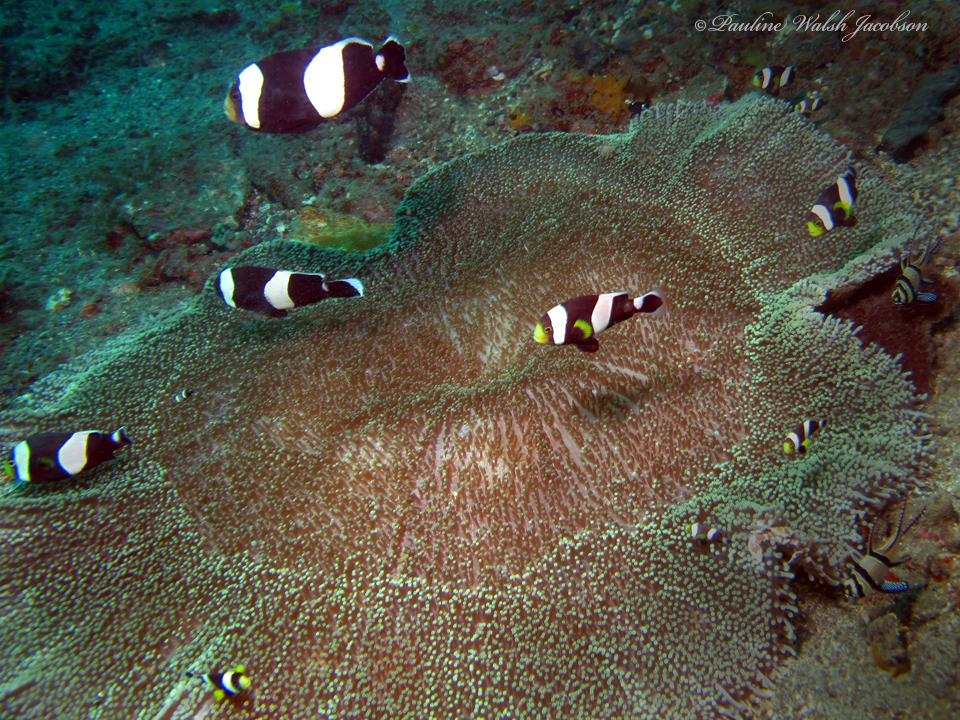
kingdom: Animalia
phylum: Chordata
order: Perciformes
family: Pomacentridae
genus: Amphiprion
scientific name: Amphiprion polymnus
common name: Saddleback anemonefish
